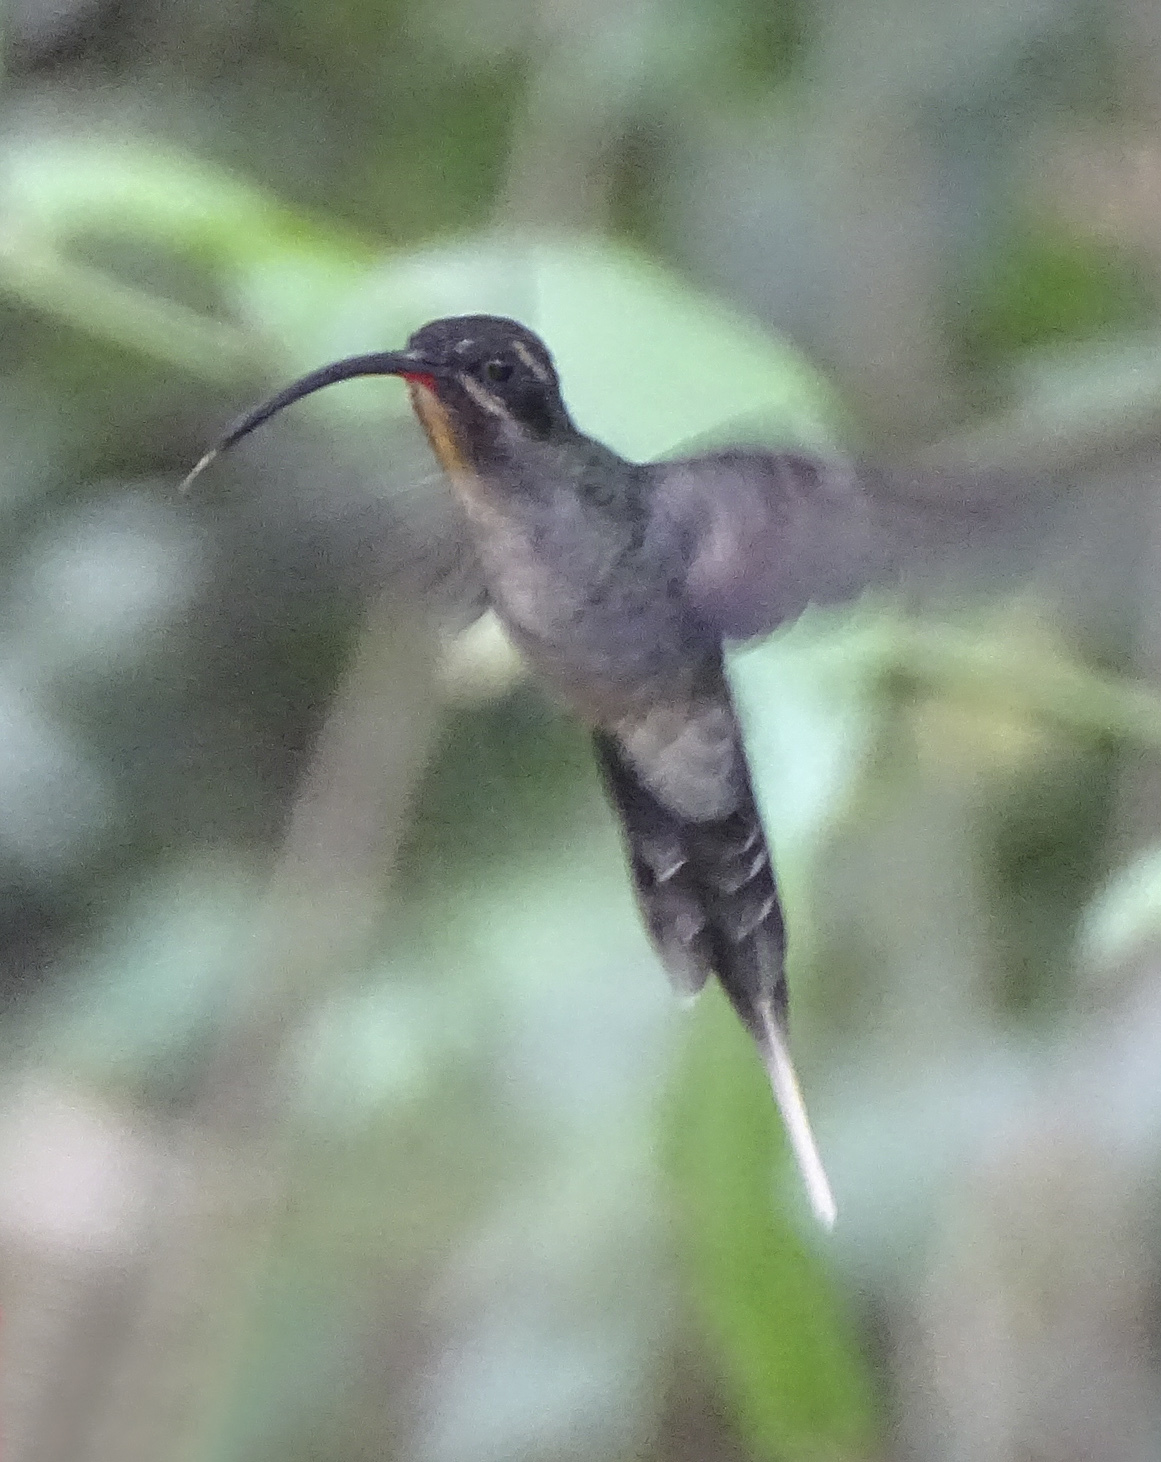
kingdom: Animalia
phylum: Chordata
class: Aves
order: Apodiformes
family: Trochilidae
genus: Phaethornis
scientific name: Phaethornis guy
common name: Green hermit
